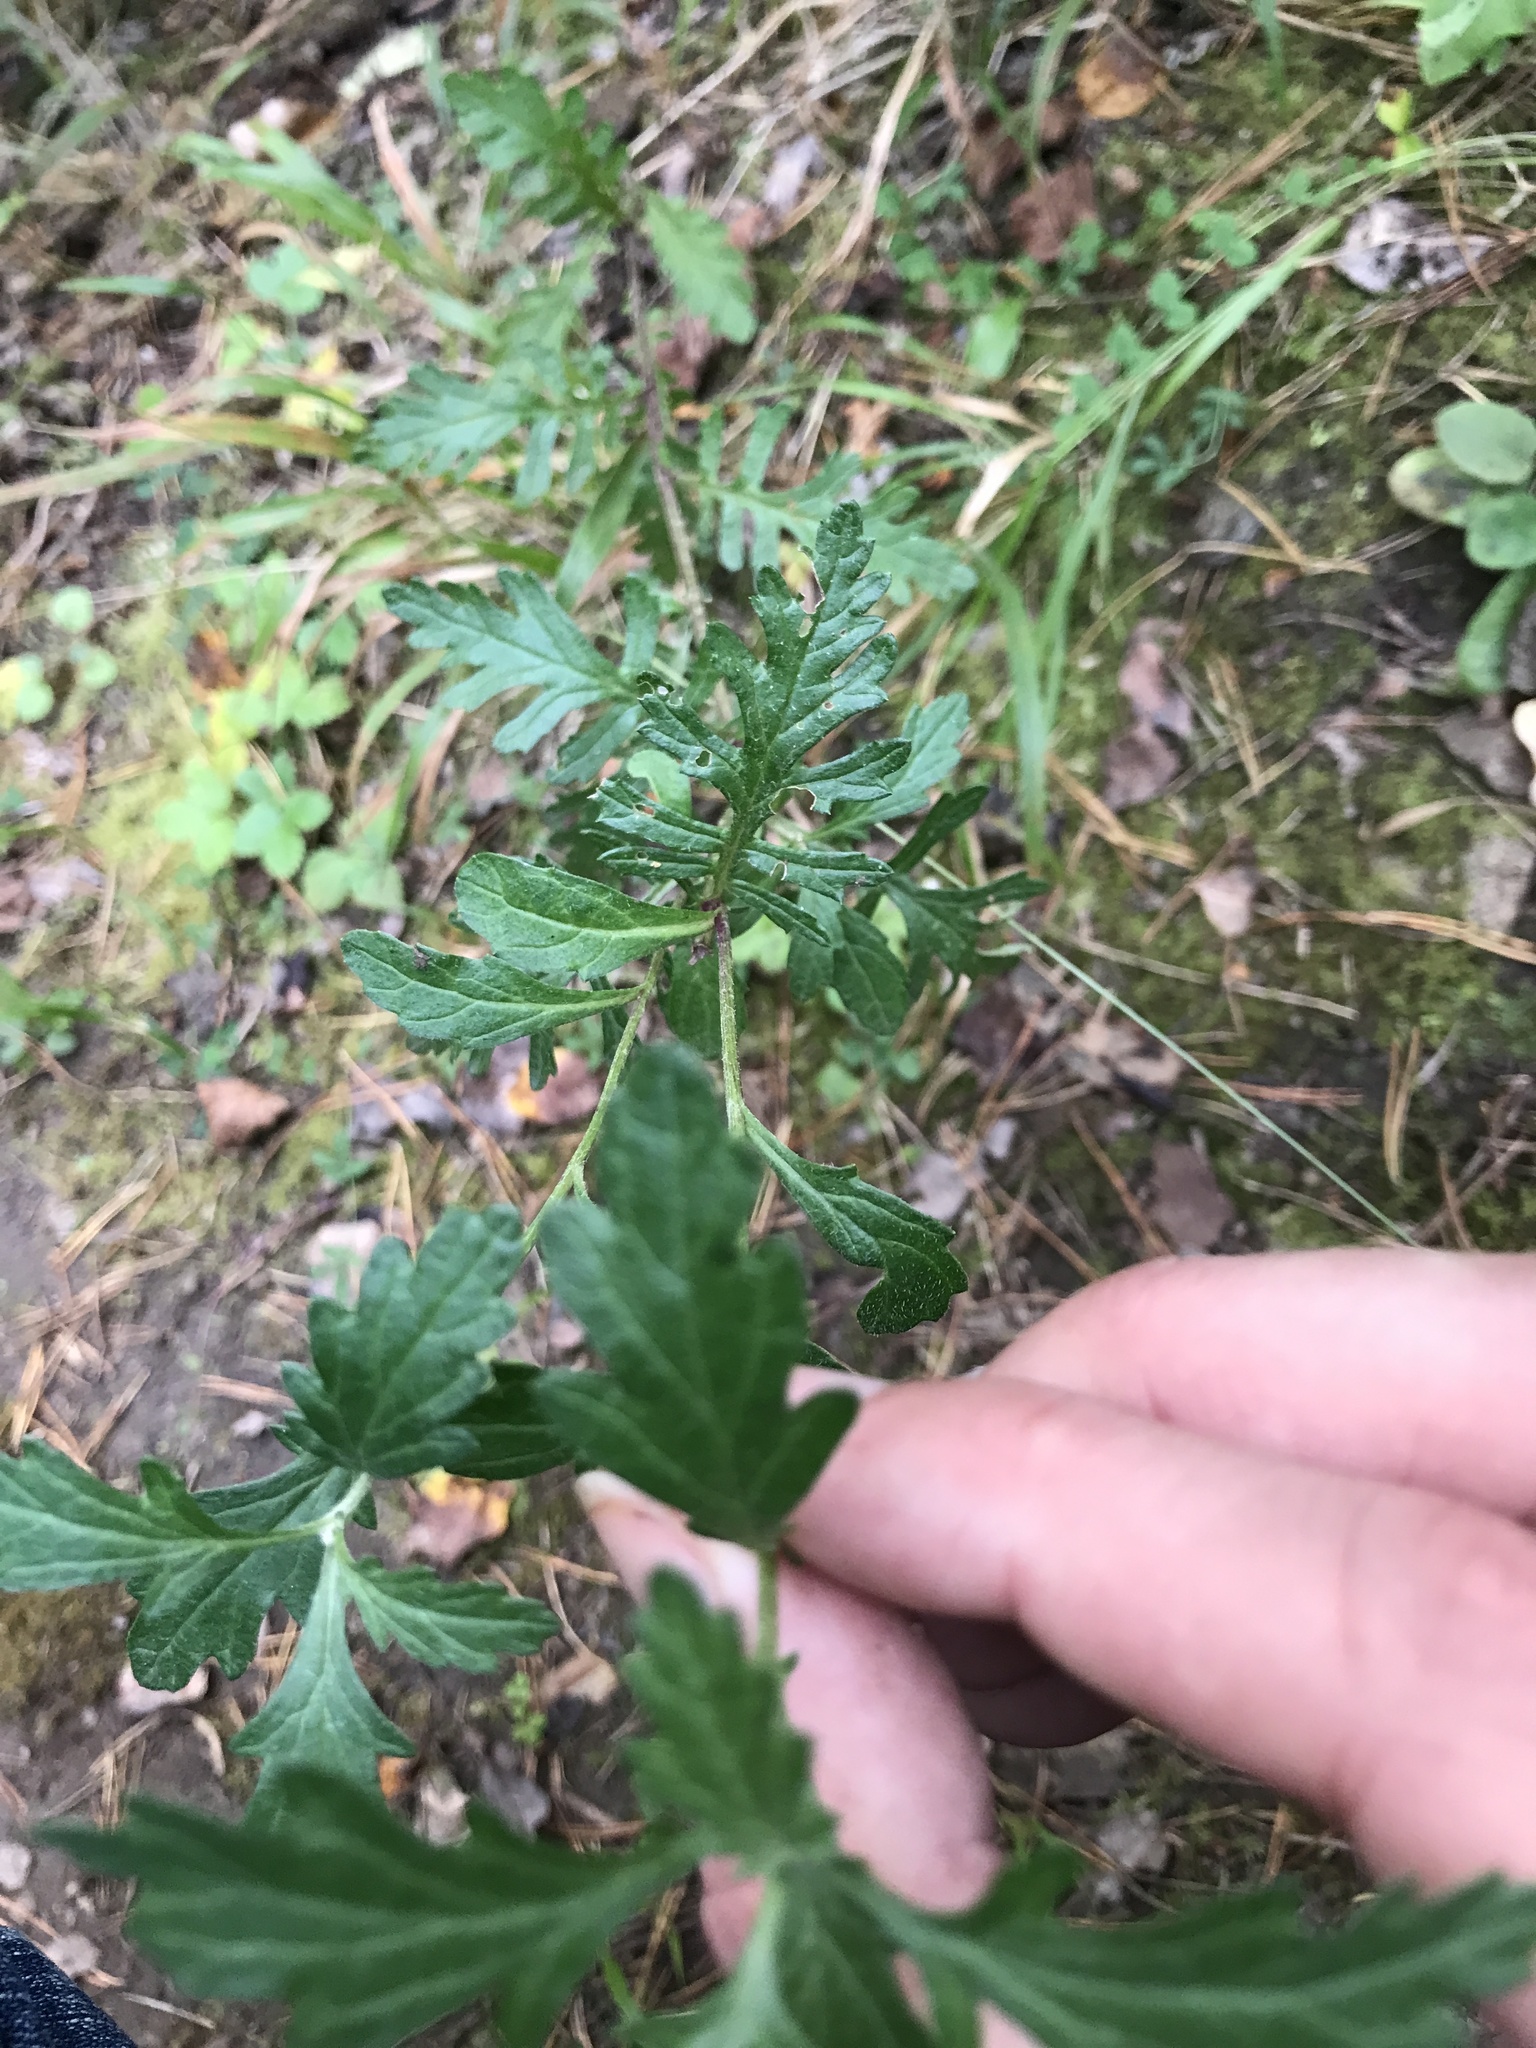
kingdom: Plantae
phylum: Tracheophyta
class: Magnoliopsida
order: Asterales
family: Asteraceae
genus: Jacobaea
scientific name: Jacobaea erucifolia
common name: Hoary ragwort
